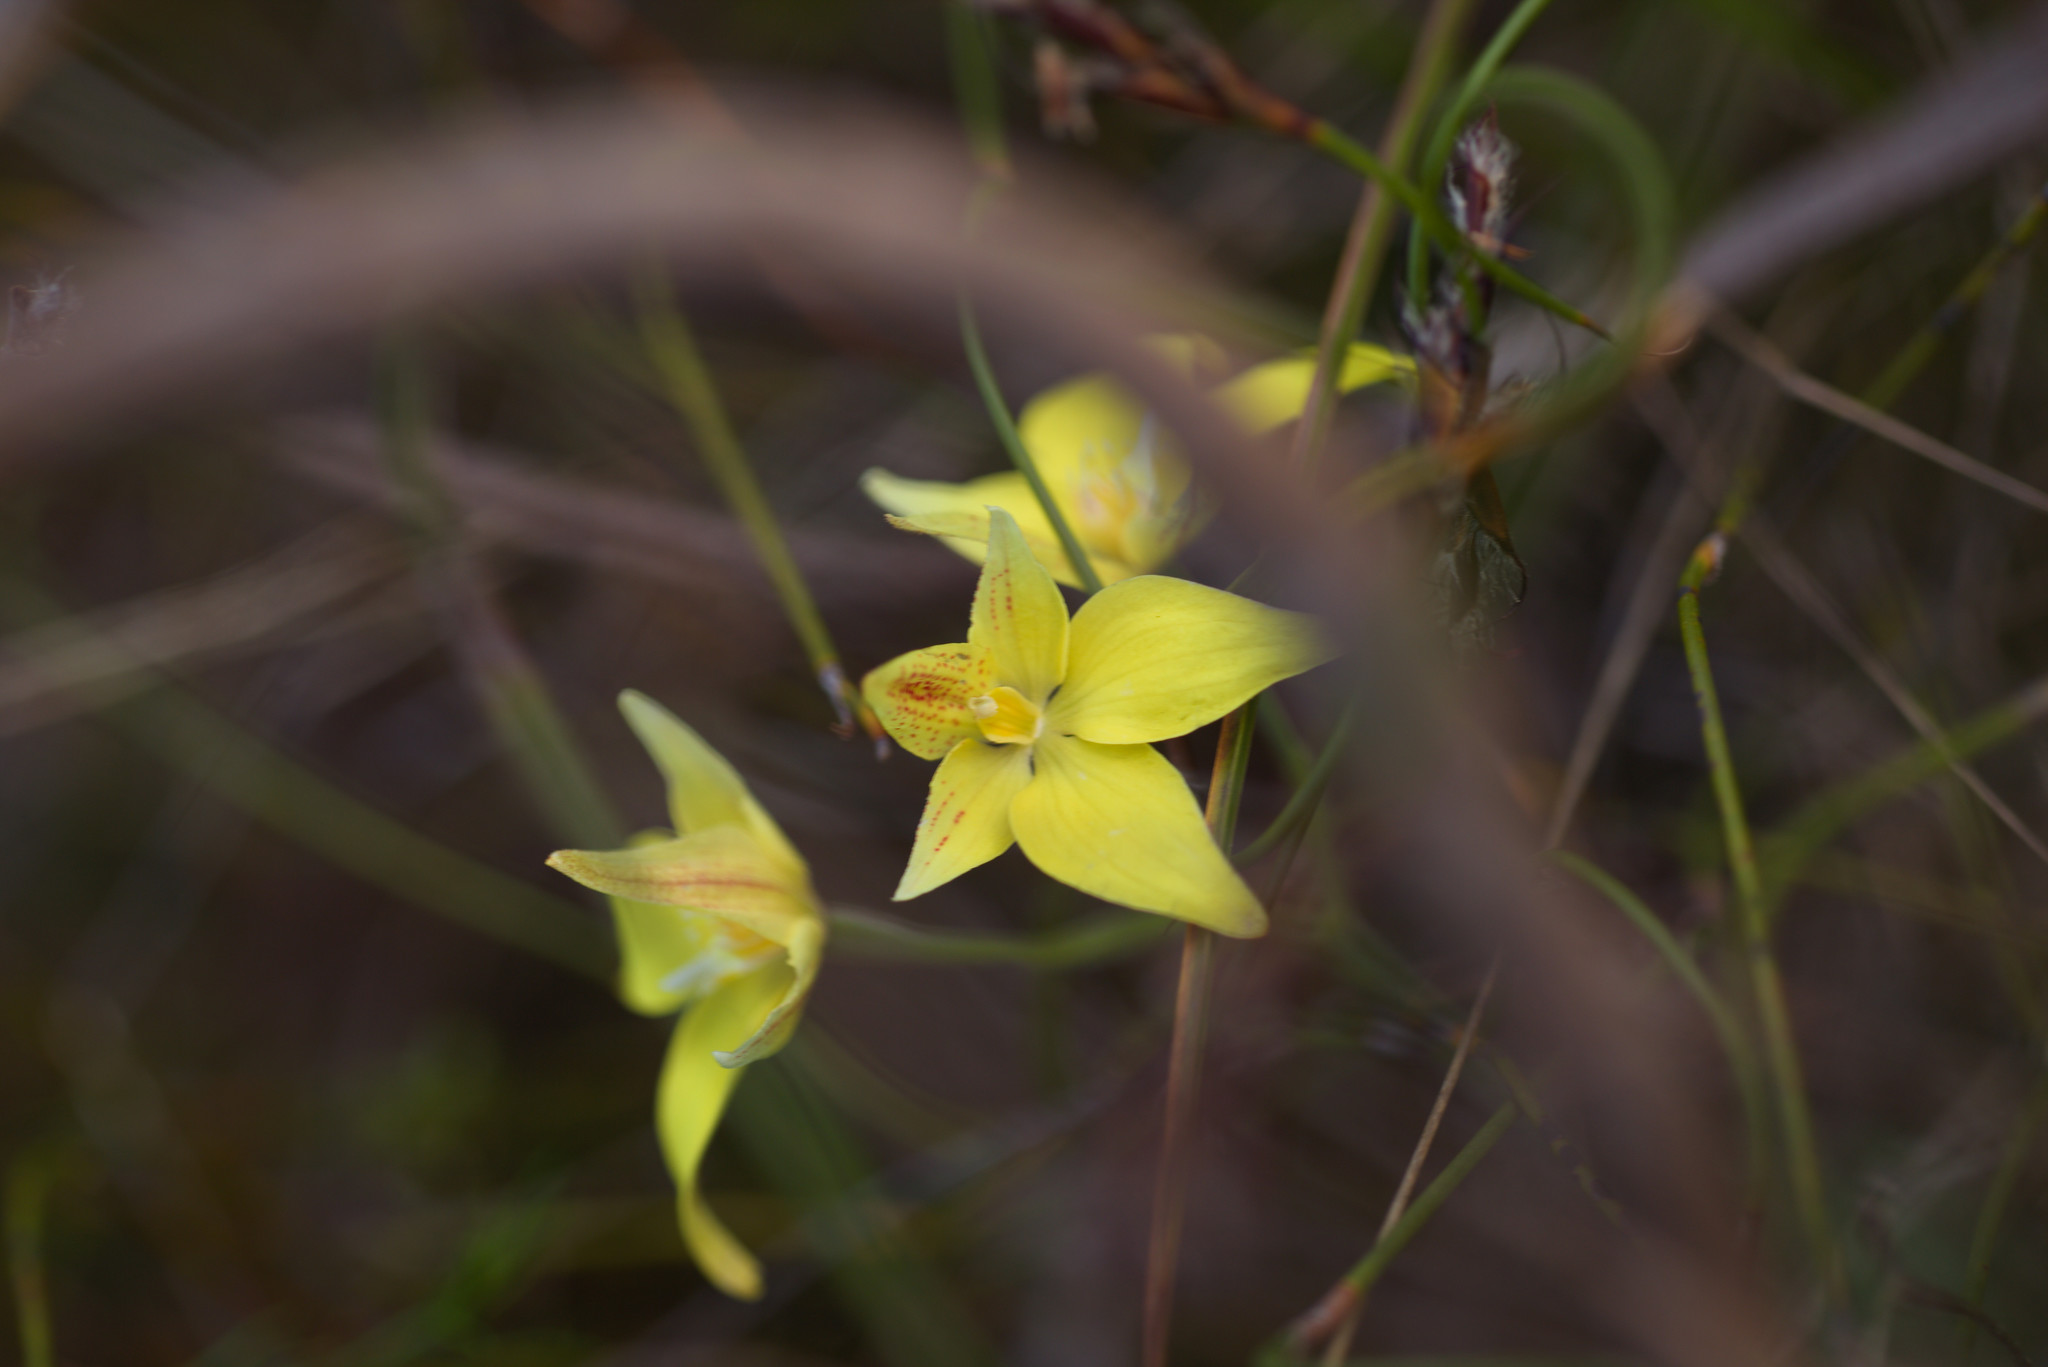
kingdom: Plantae
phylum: Tracheophyta
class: Liliopsida
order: Asparagales
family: Orchidaceae
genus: Caladenia
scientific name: Caladenia flava
